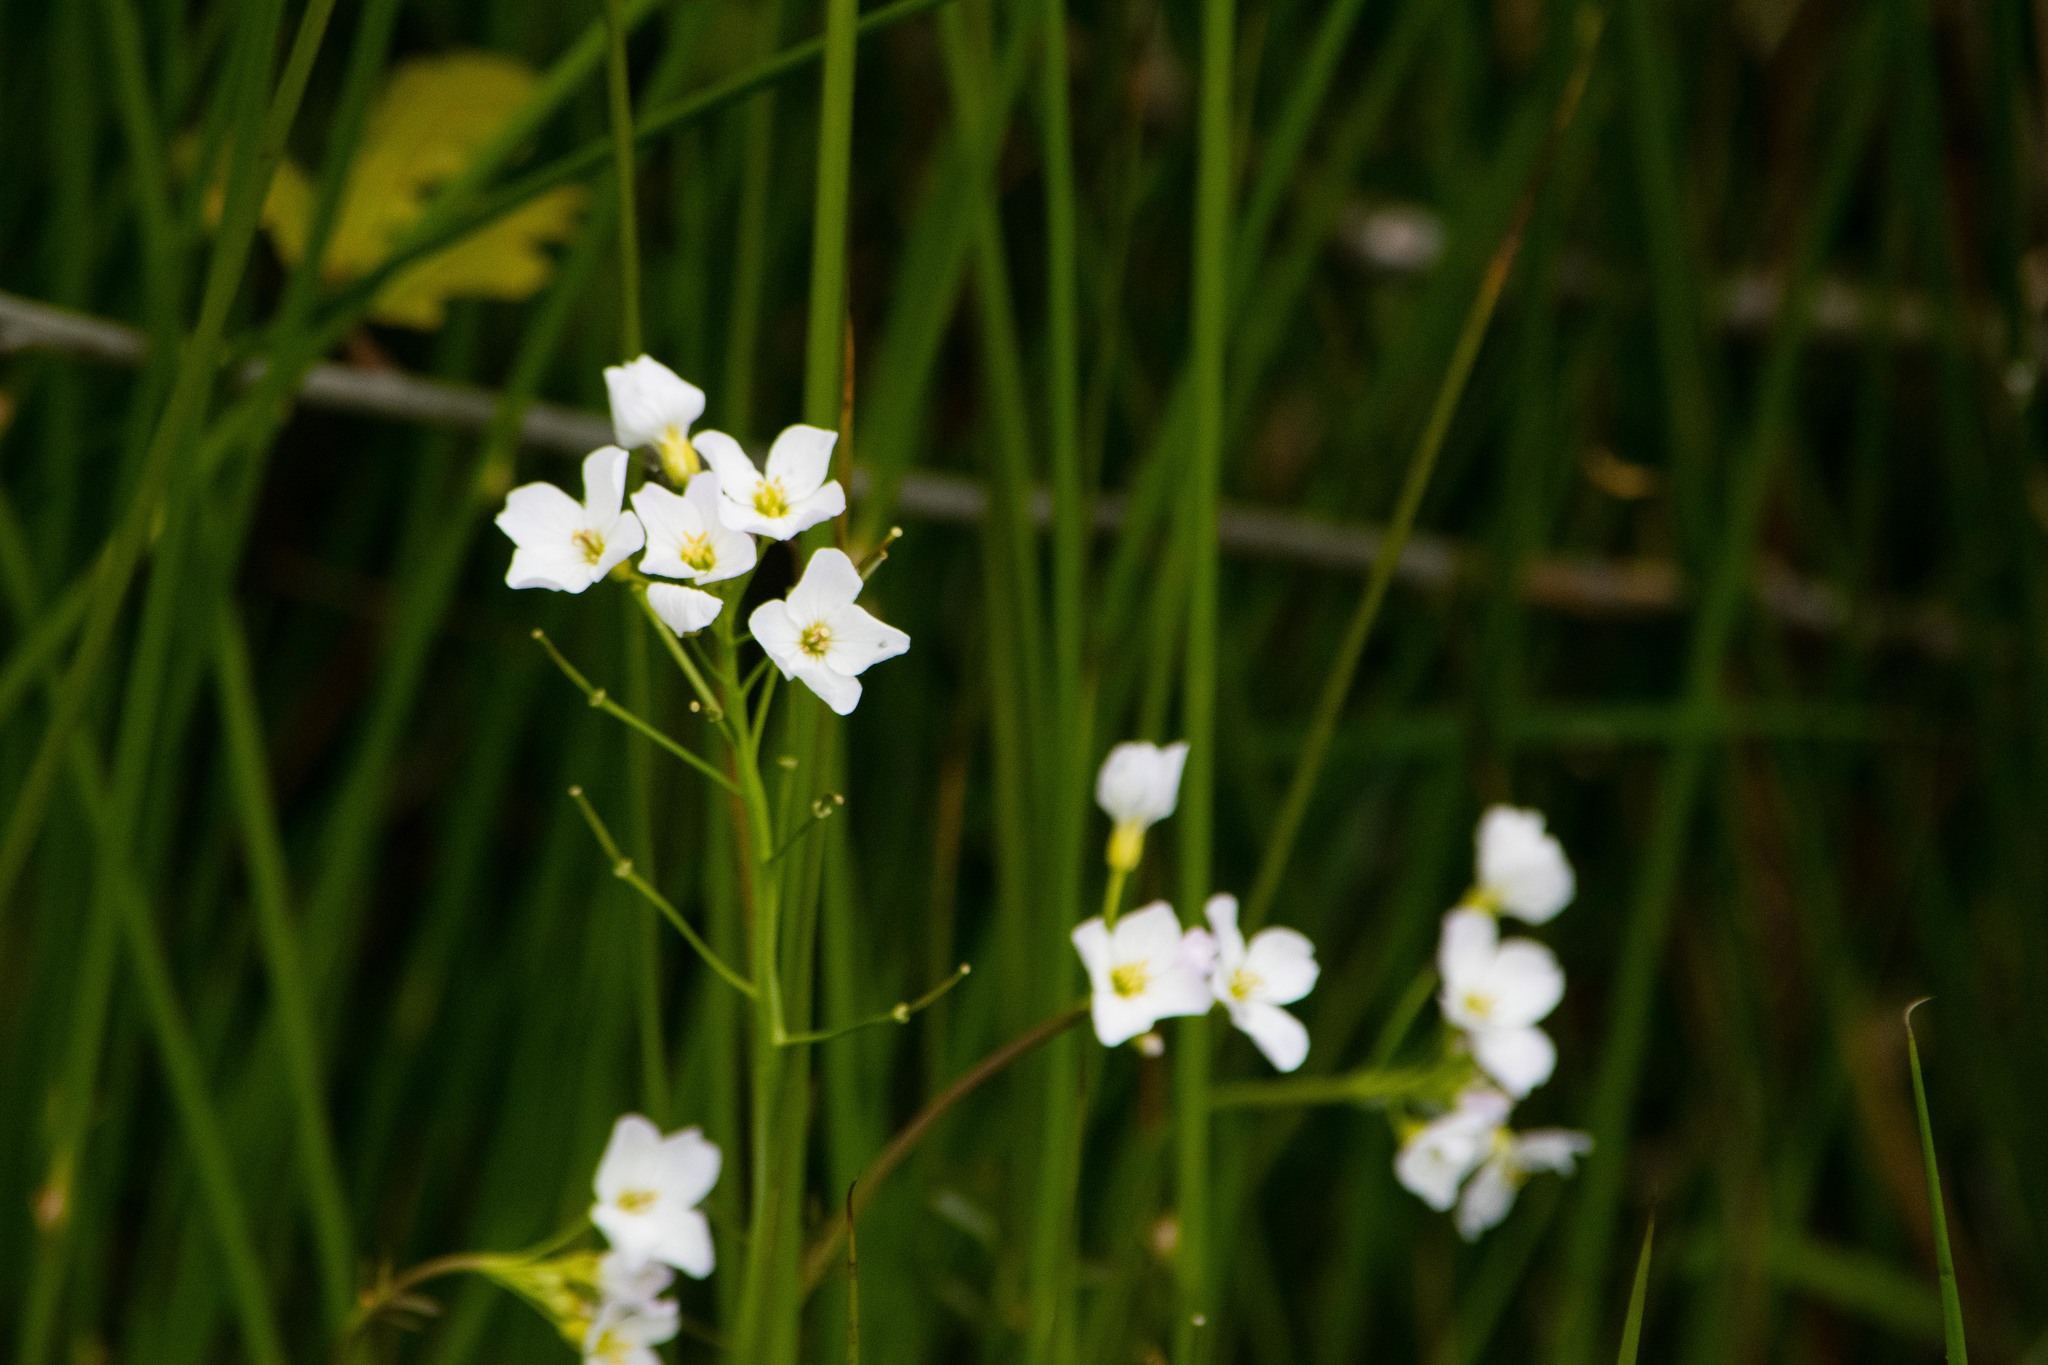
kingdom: Plantae
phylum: Tracheophyta
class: Magnoliopsida
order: Brassicales
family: Brassicaceae
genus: Cardamine
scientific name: Cardamine pratensis
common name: Cuckoo flower
